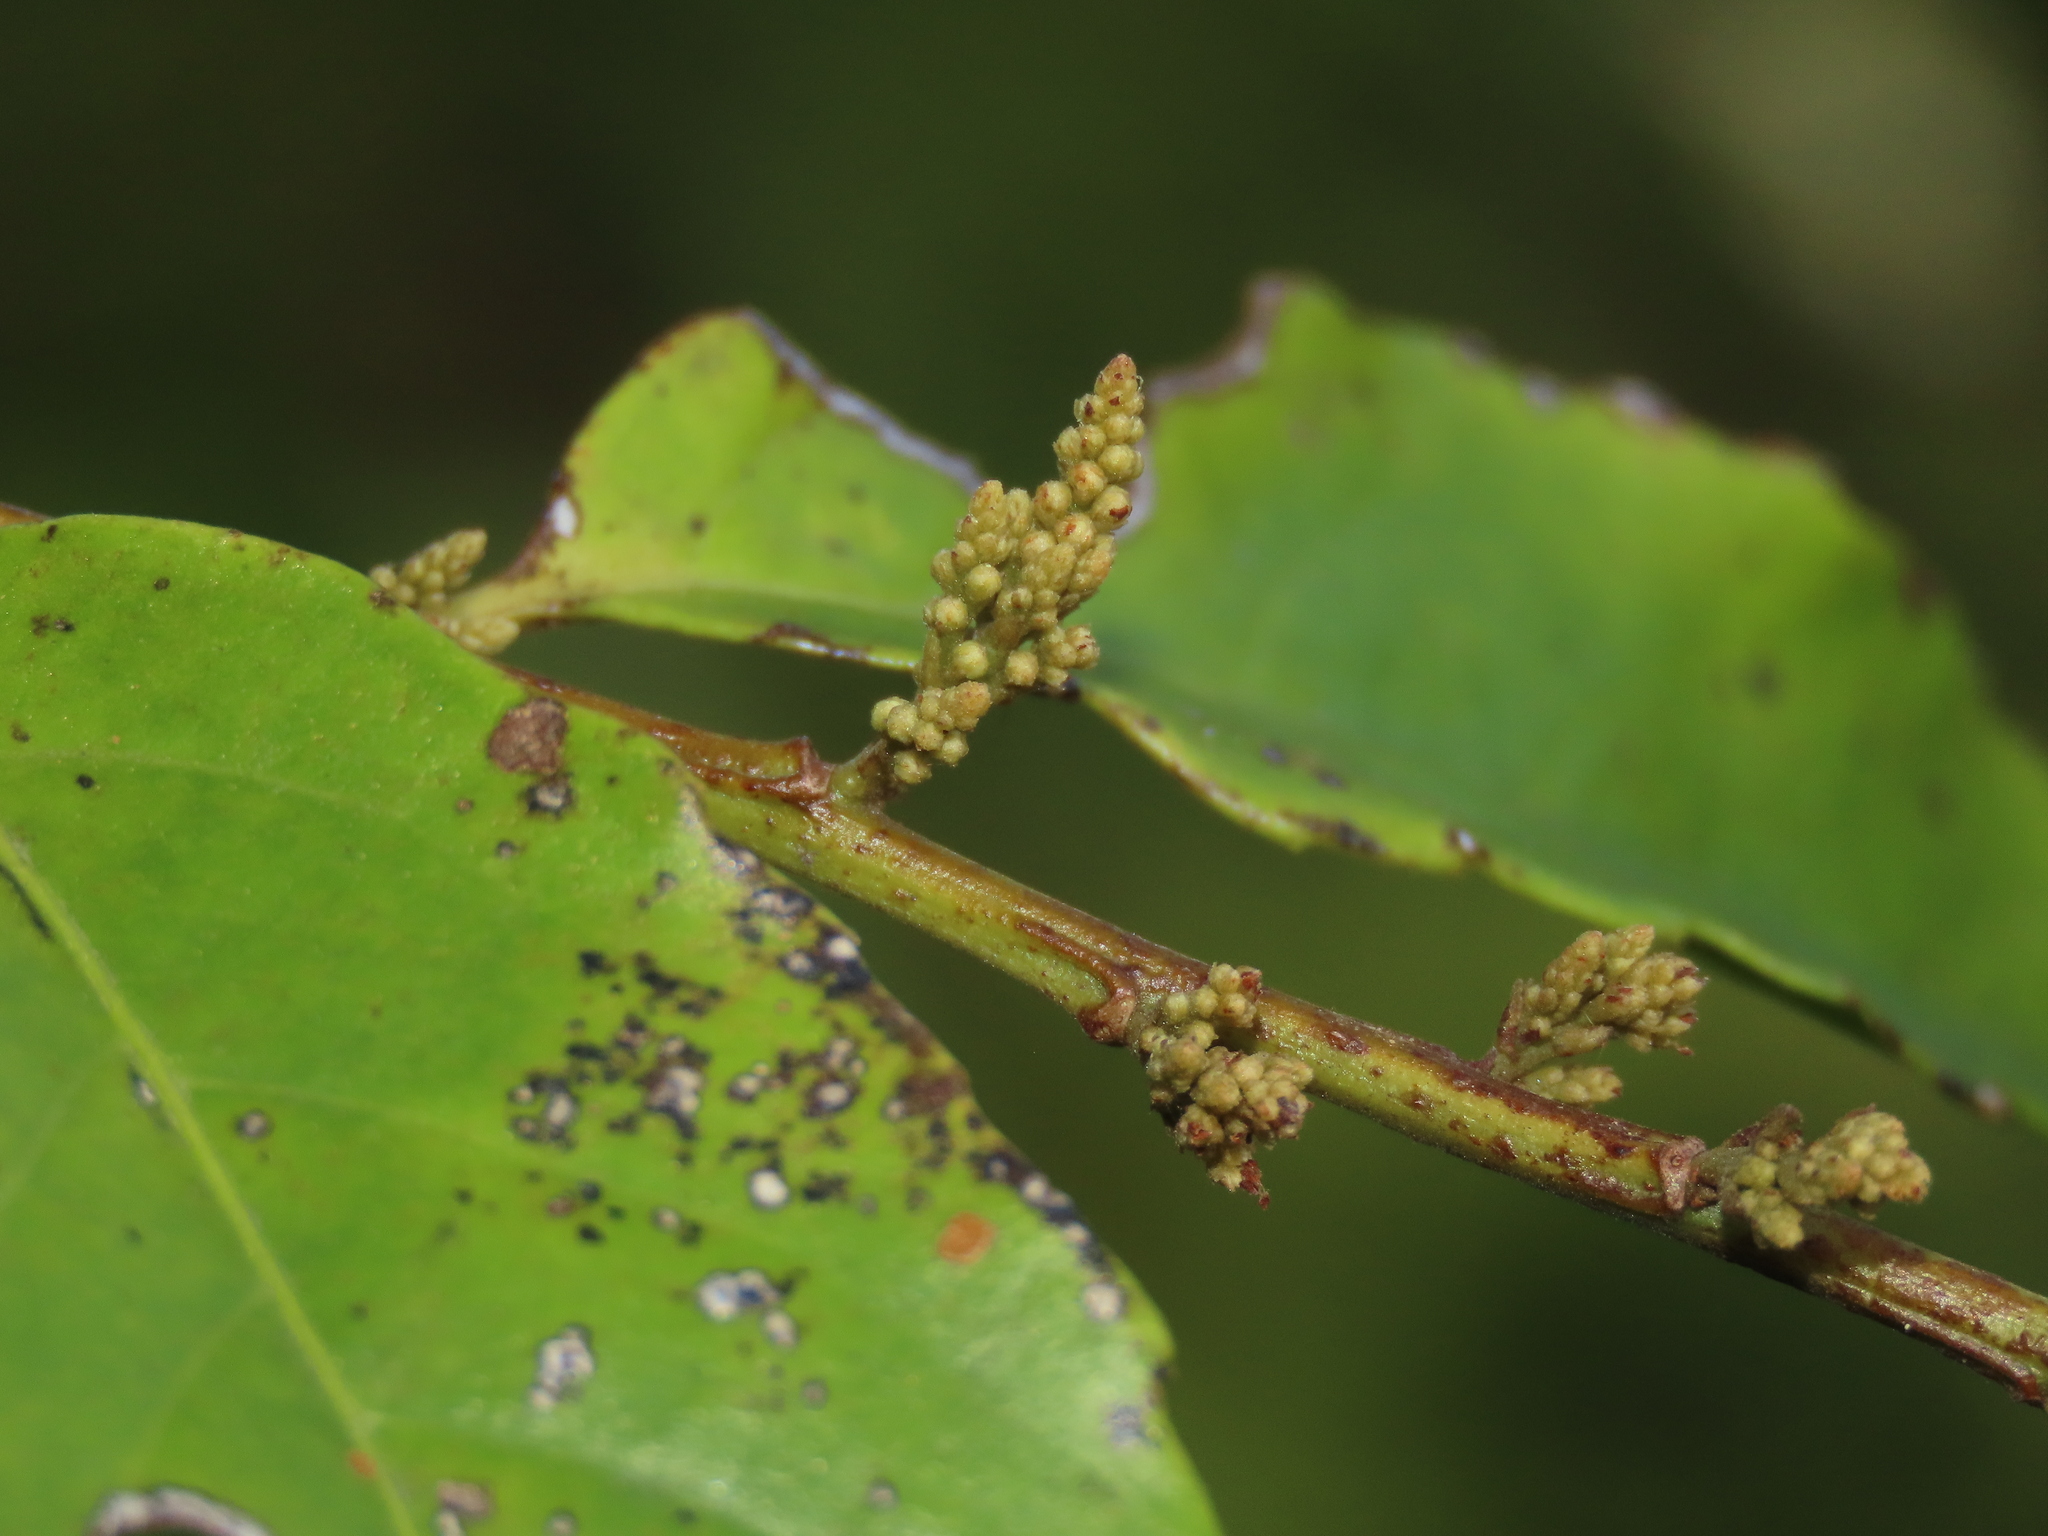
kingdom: Plantae
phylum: Tracheophyta
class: Magnoliopsida
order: Ericales
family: Primulaceae
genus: Maesa
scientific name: Maesa perlaria
